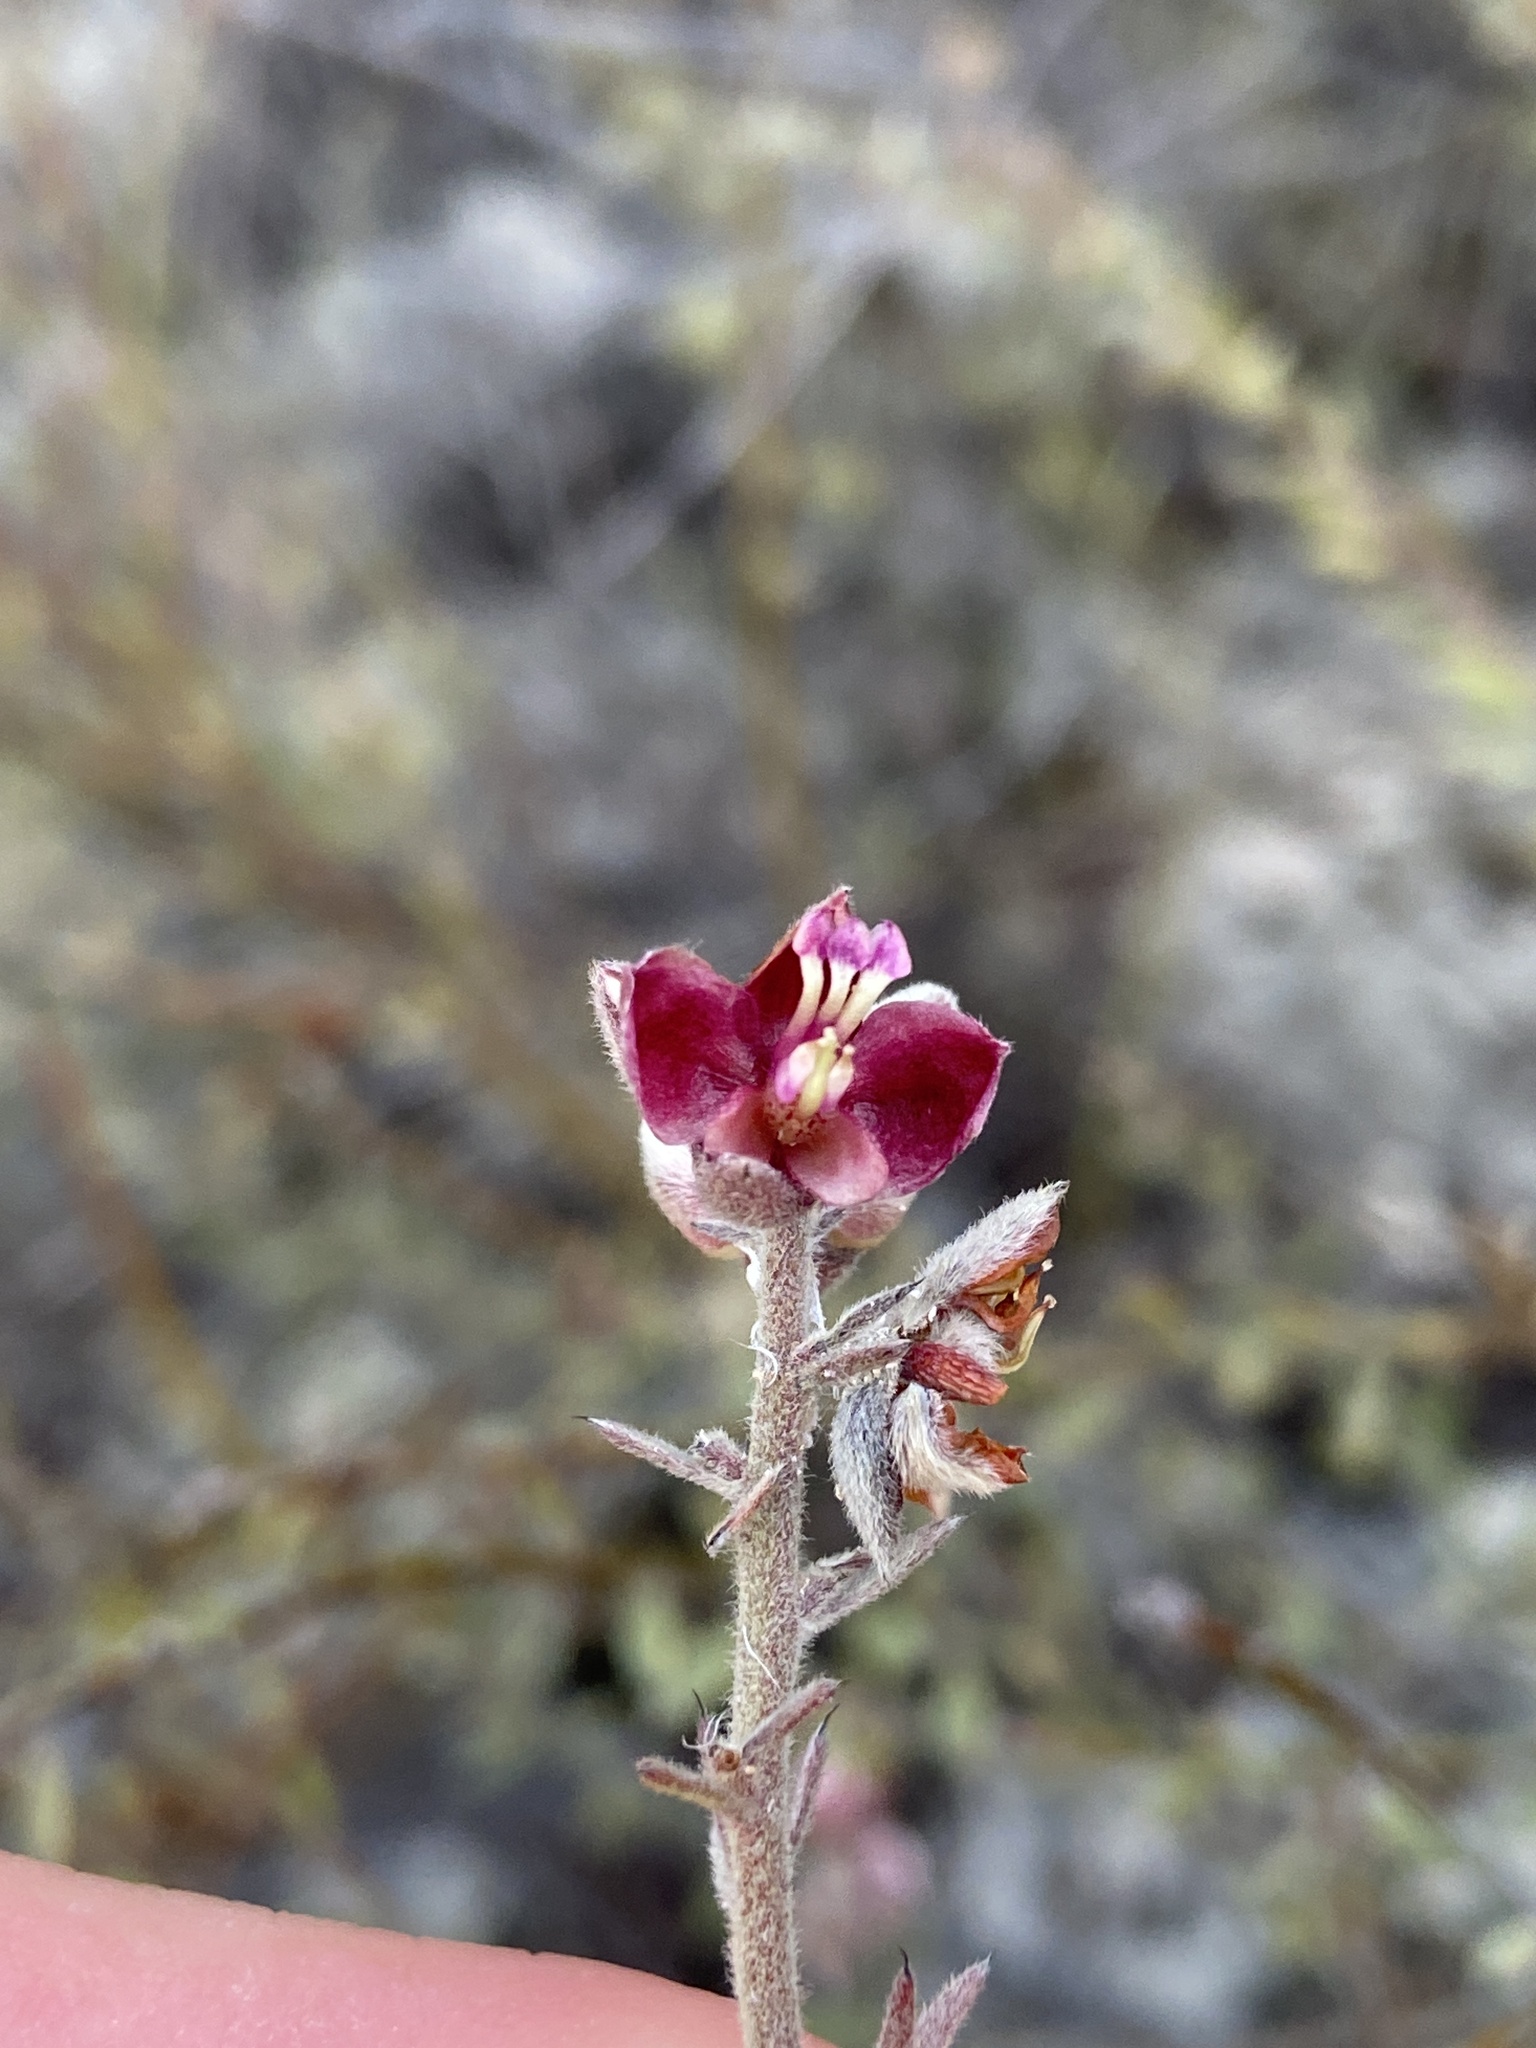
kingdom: Plantae
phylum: Tracheophyta
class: Magnoliopsida
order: Zygophyllales
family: Krameriaceae
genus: Krameria
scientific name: Krameria ixine
